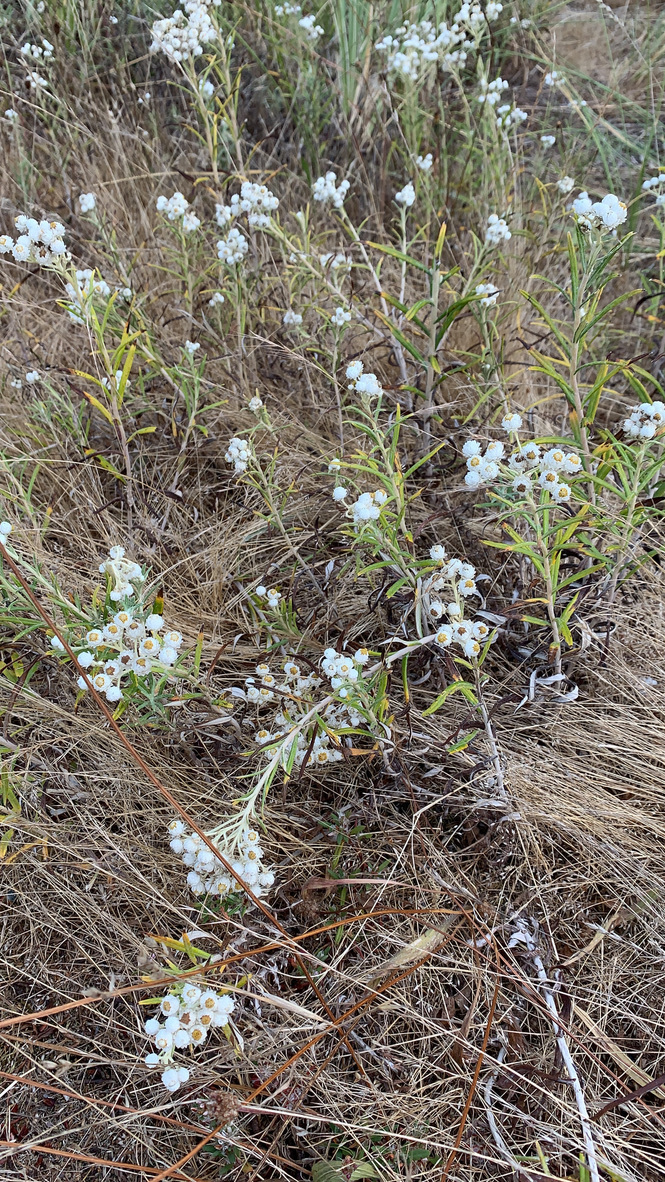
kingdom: Plantae
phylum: Tracheophyta
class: Magnoliopsida
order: Asterales
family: Asteraceae
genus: Anaphalis
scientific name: Anaphalis margaritacea
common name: Pearly everlasting
